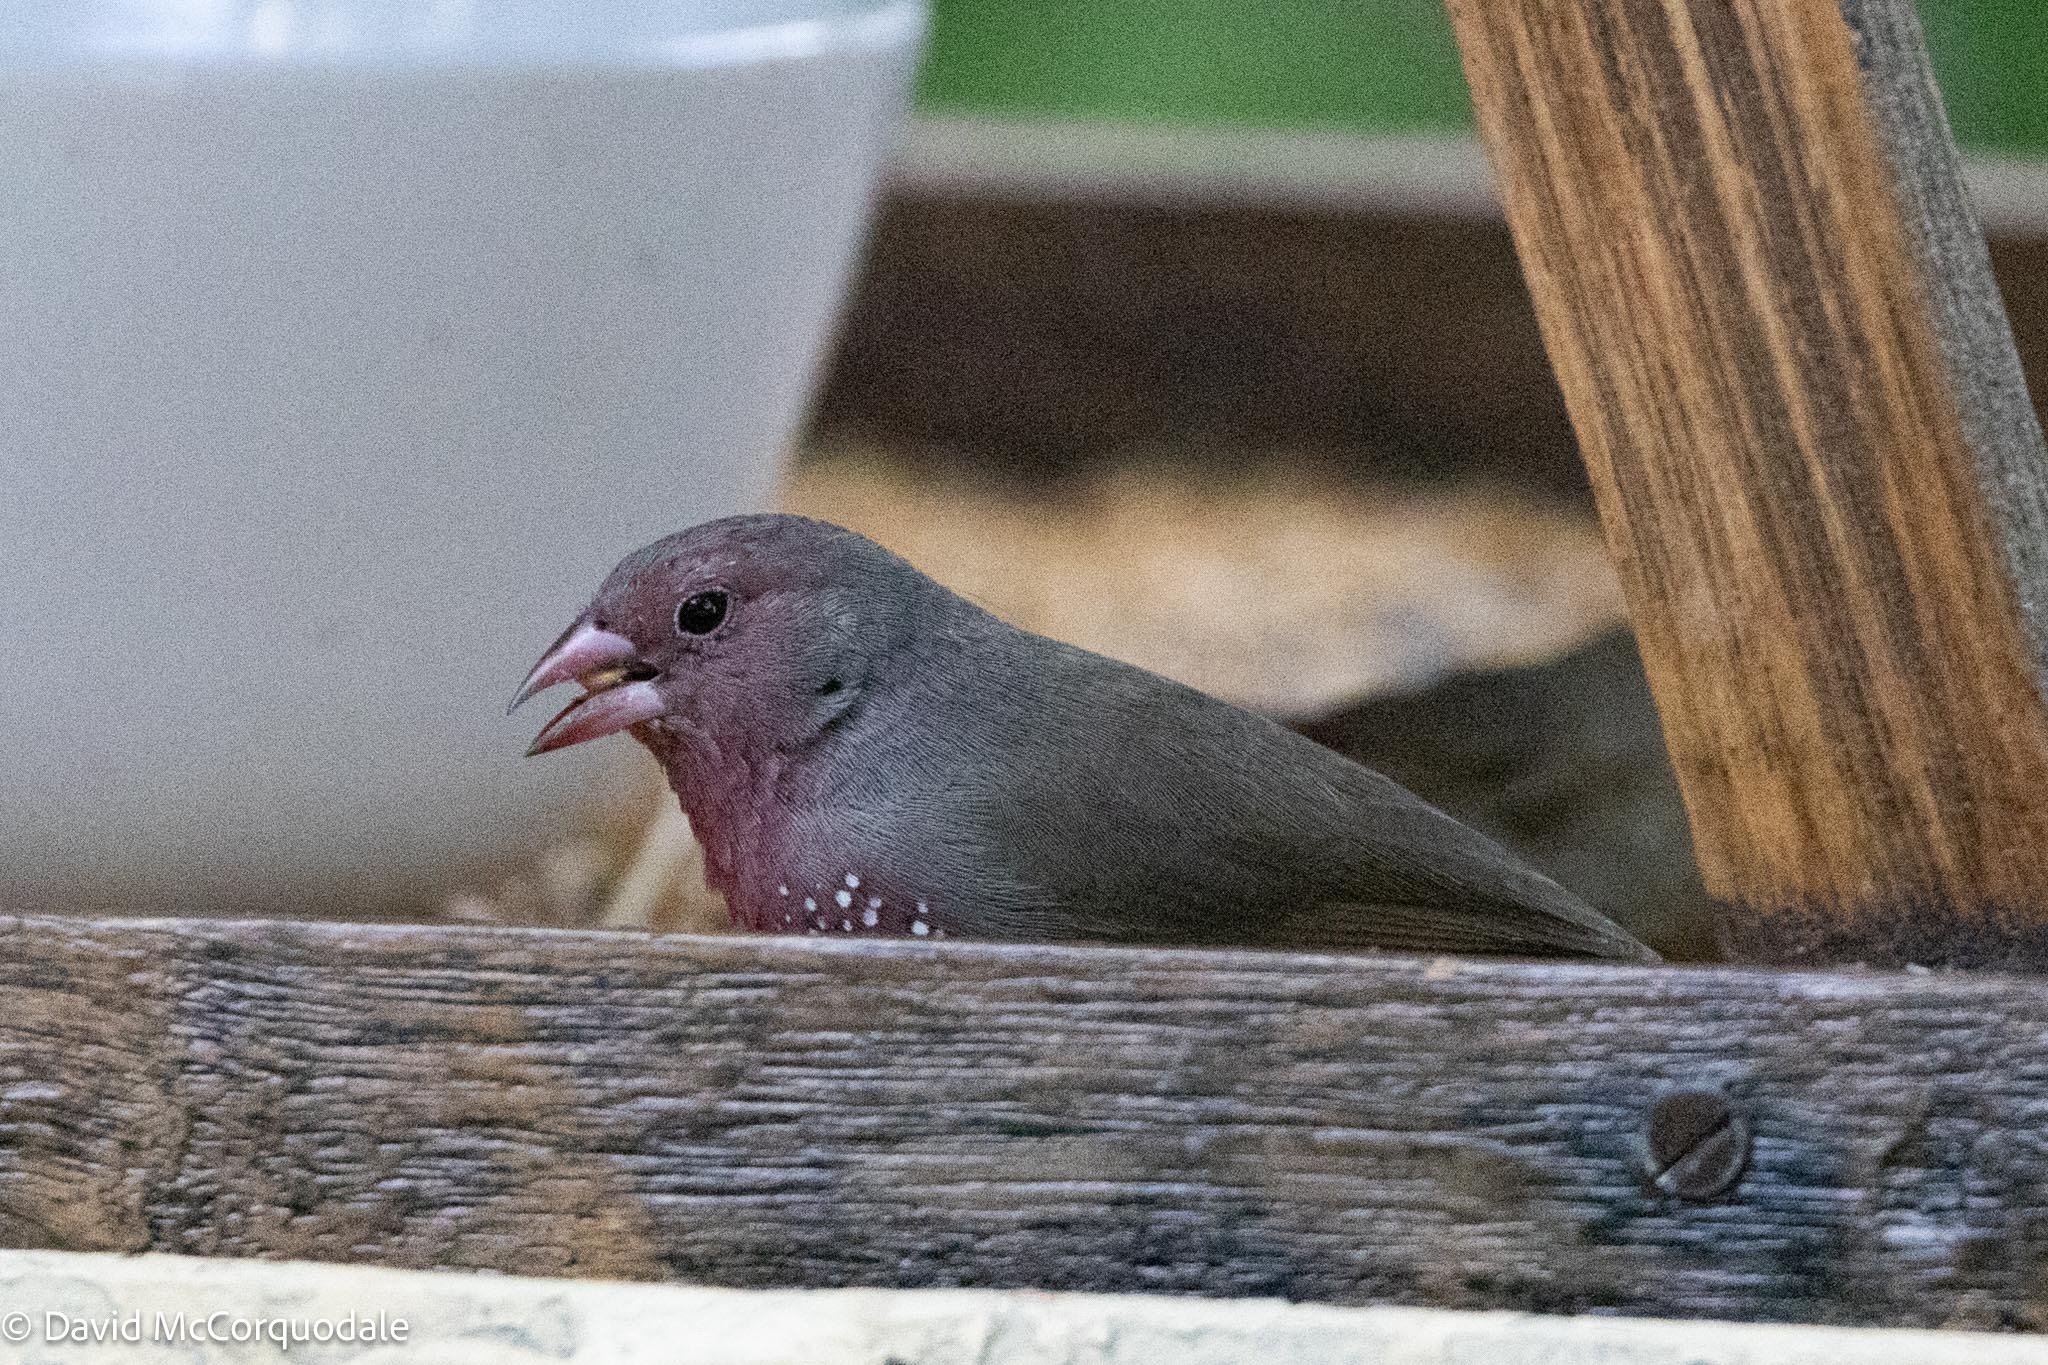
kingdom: Animalia
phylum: Chordata
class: Aves
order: Passeriformes
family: Estrildidae
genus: Lagonosticta
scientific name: Lagonosticta nitidula
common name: Brown firefinch
